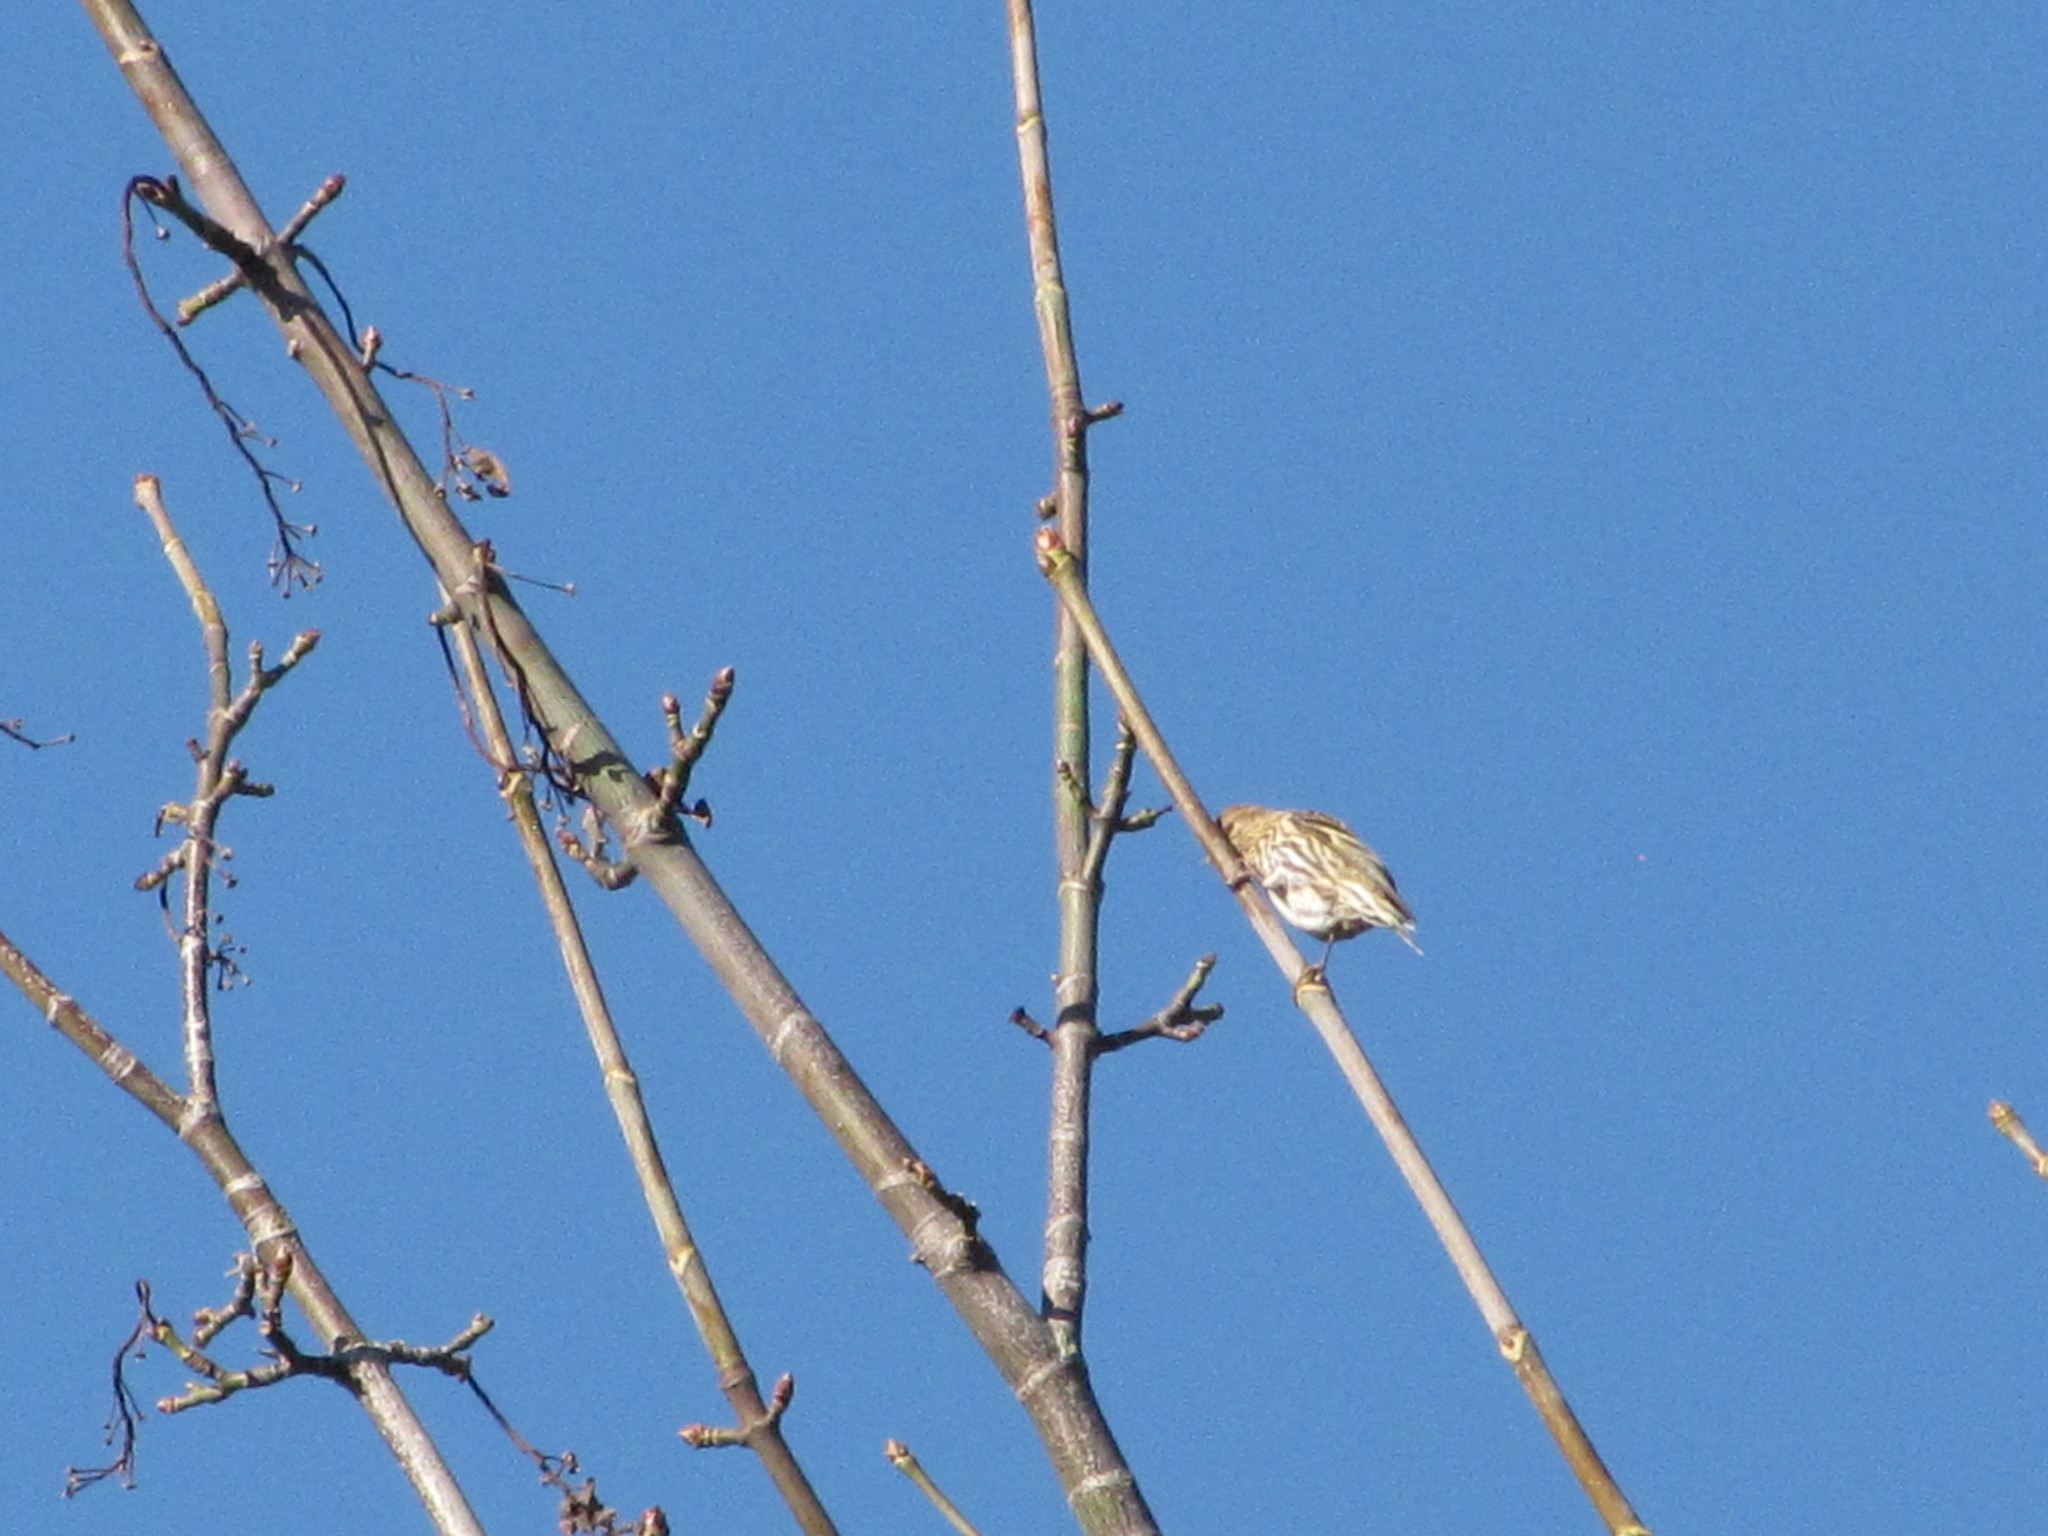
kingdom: Animalia
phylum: Chordata
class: Aves
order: Passeriformes
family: Fringillidae
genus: Spinus
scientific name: Spinus pinus
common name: Pine siskin
